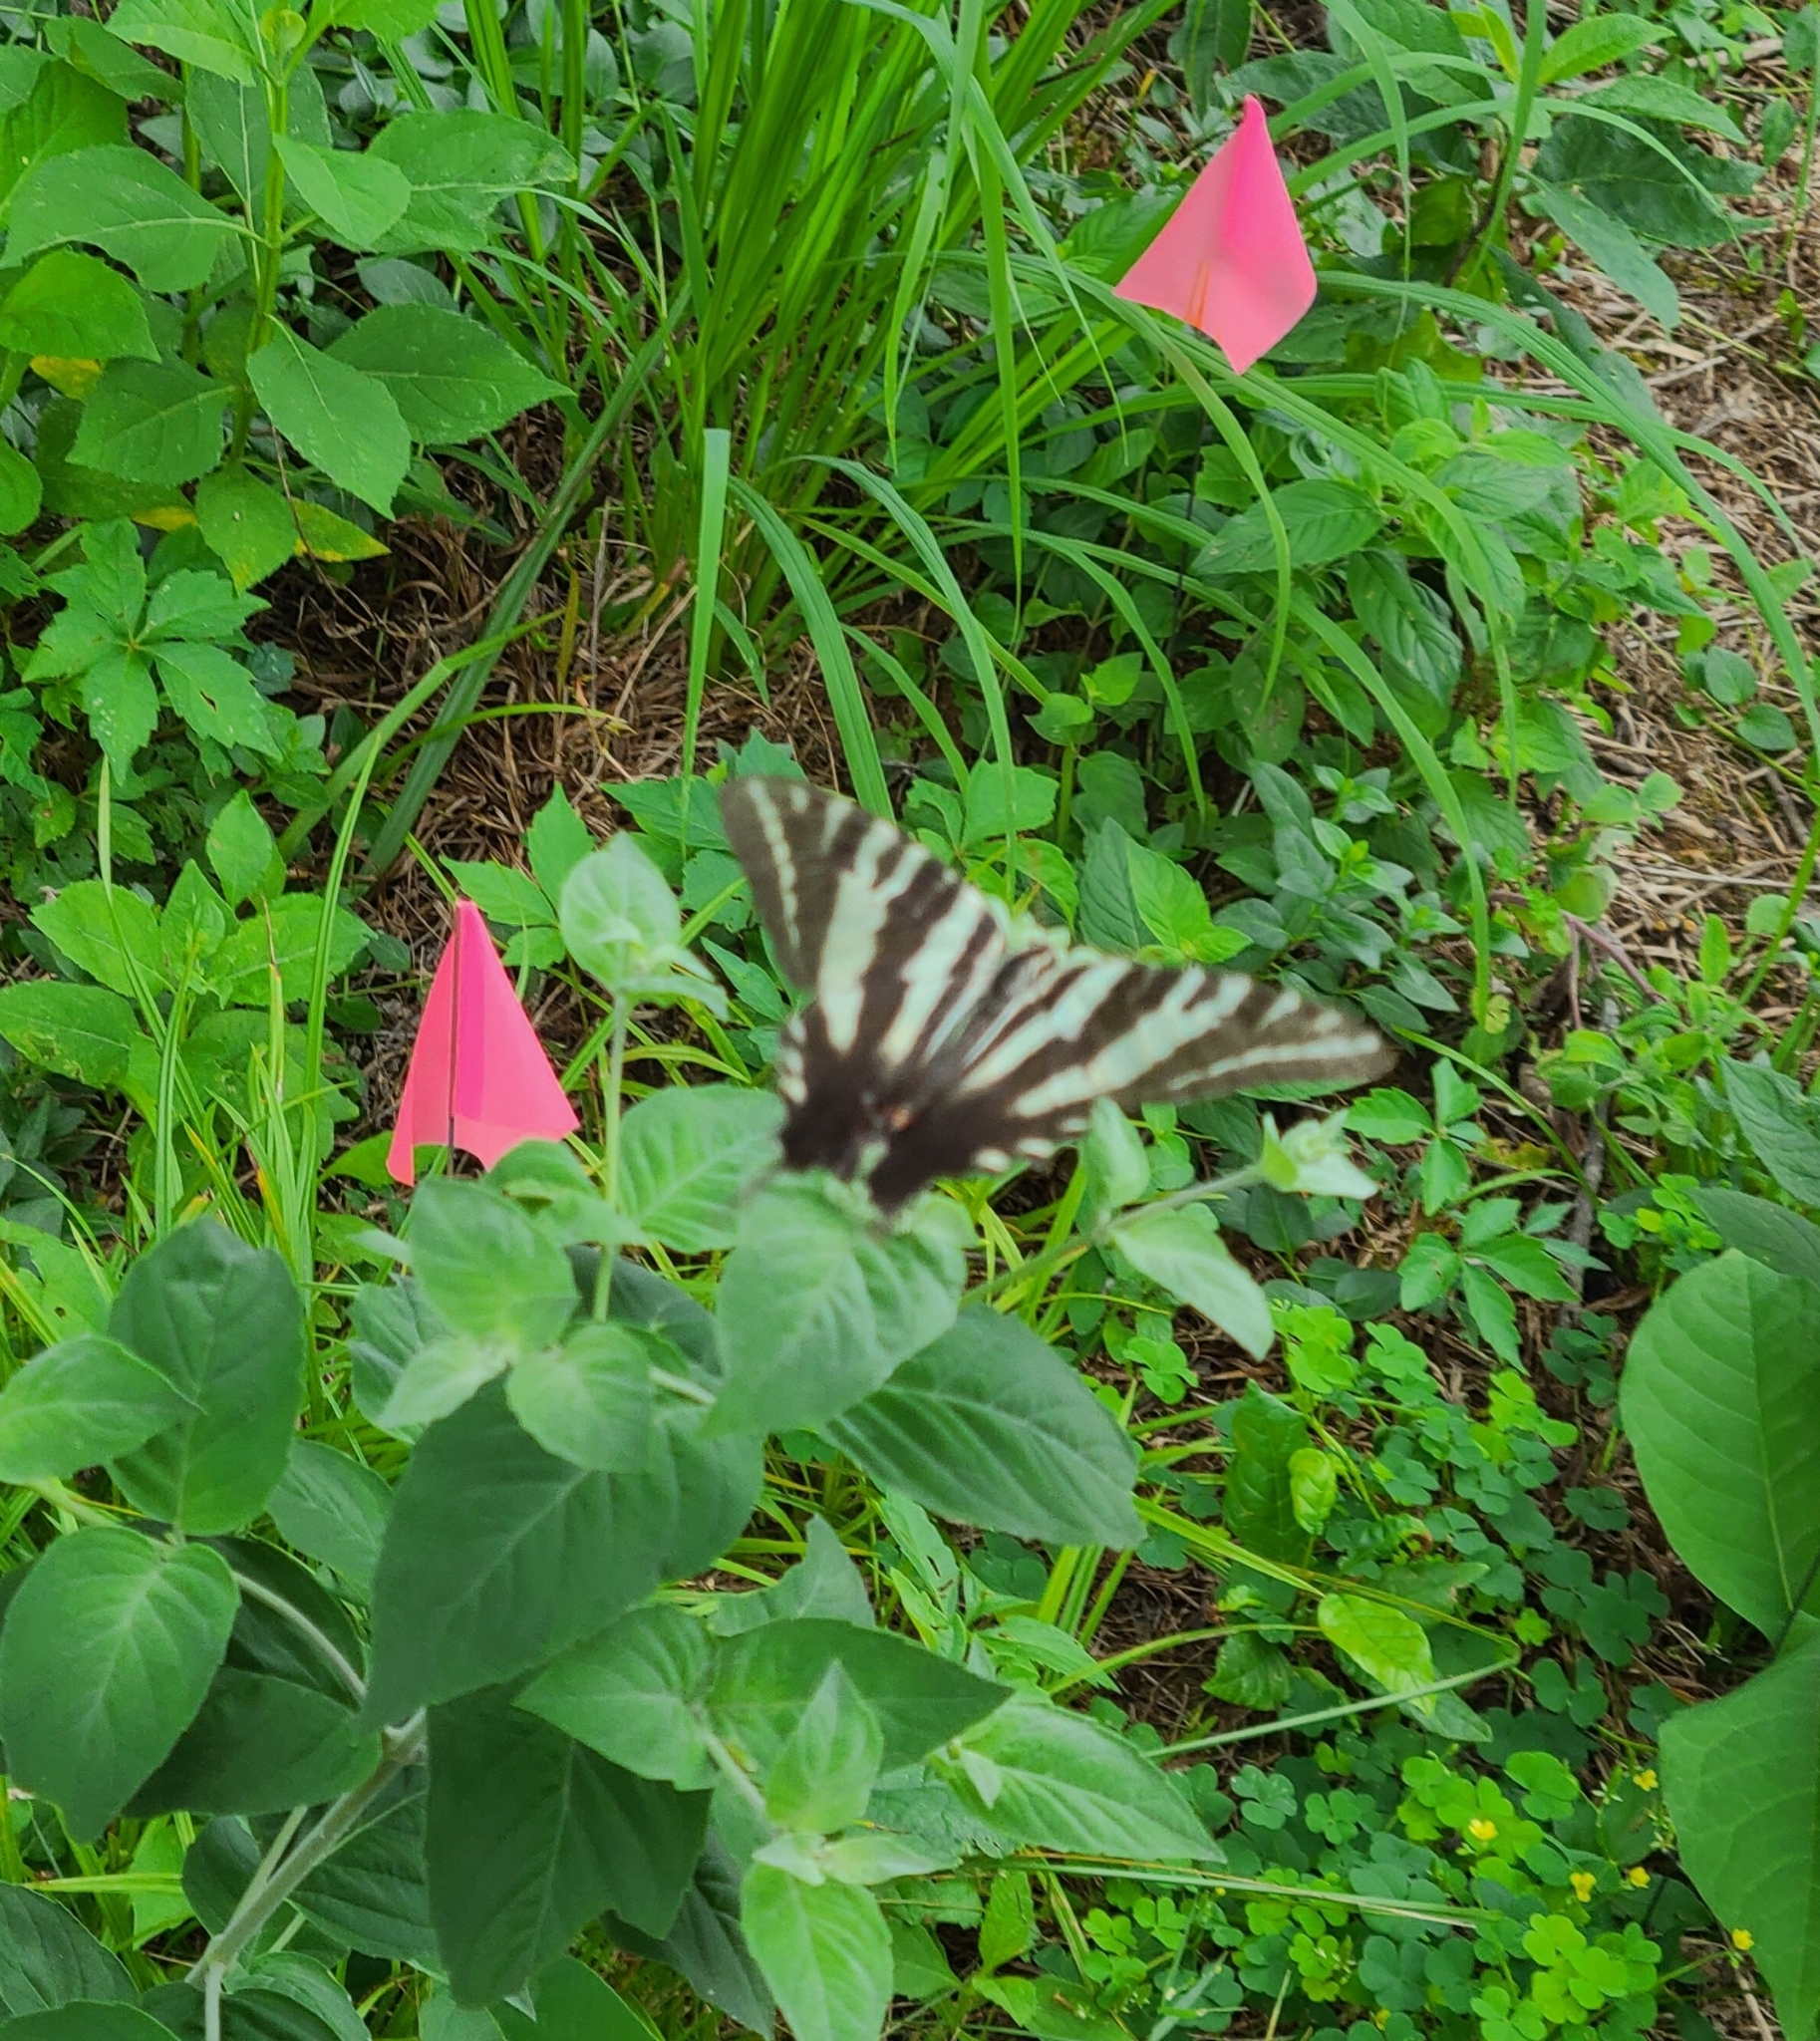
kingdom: Animalia
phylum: Arthropoda
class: Insecta
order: Lepidoptera
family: Papilionidae
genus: Protographium
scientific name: Protographium marcellus
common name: Zebra swallowtail
